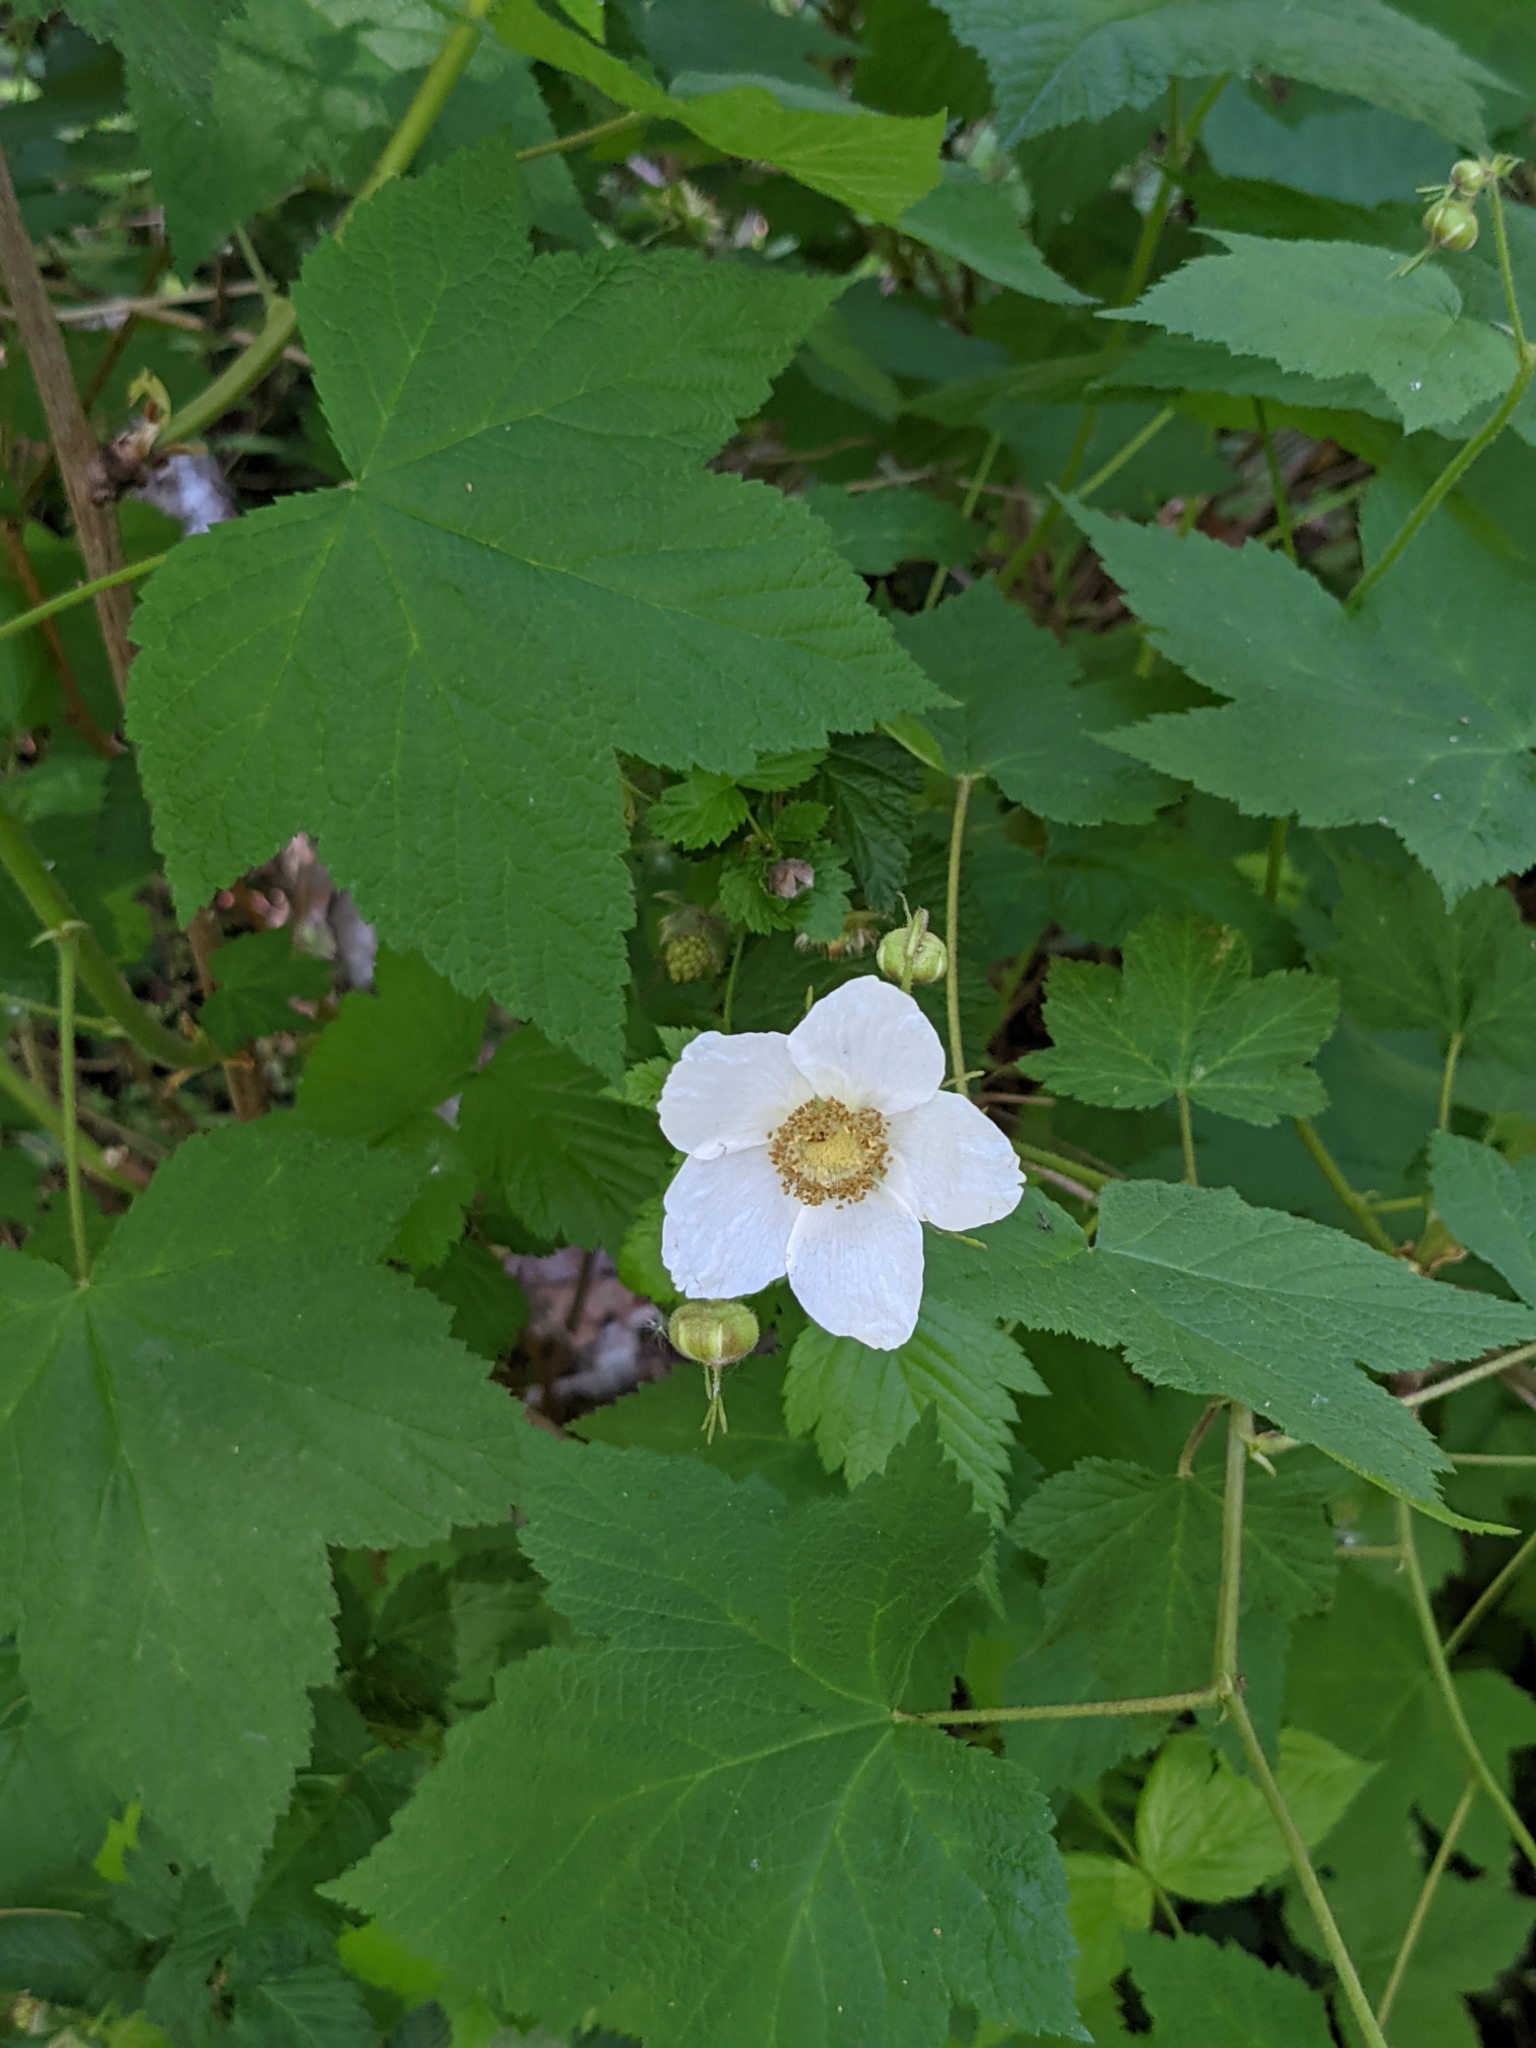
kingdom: Plantae
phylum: Tracheophyta
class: Magnoliopsida
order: Rosales
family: Rosaceae
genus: Rubus
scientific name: Rubus parviflorus
